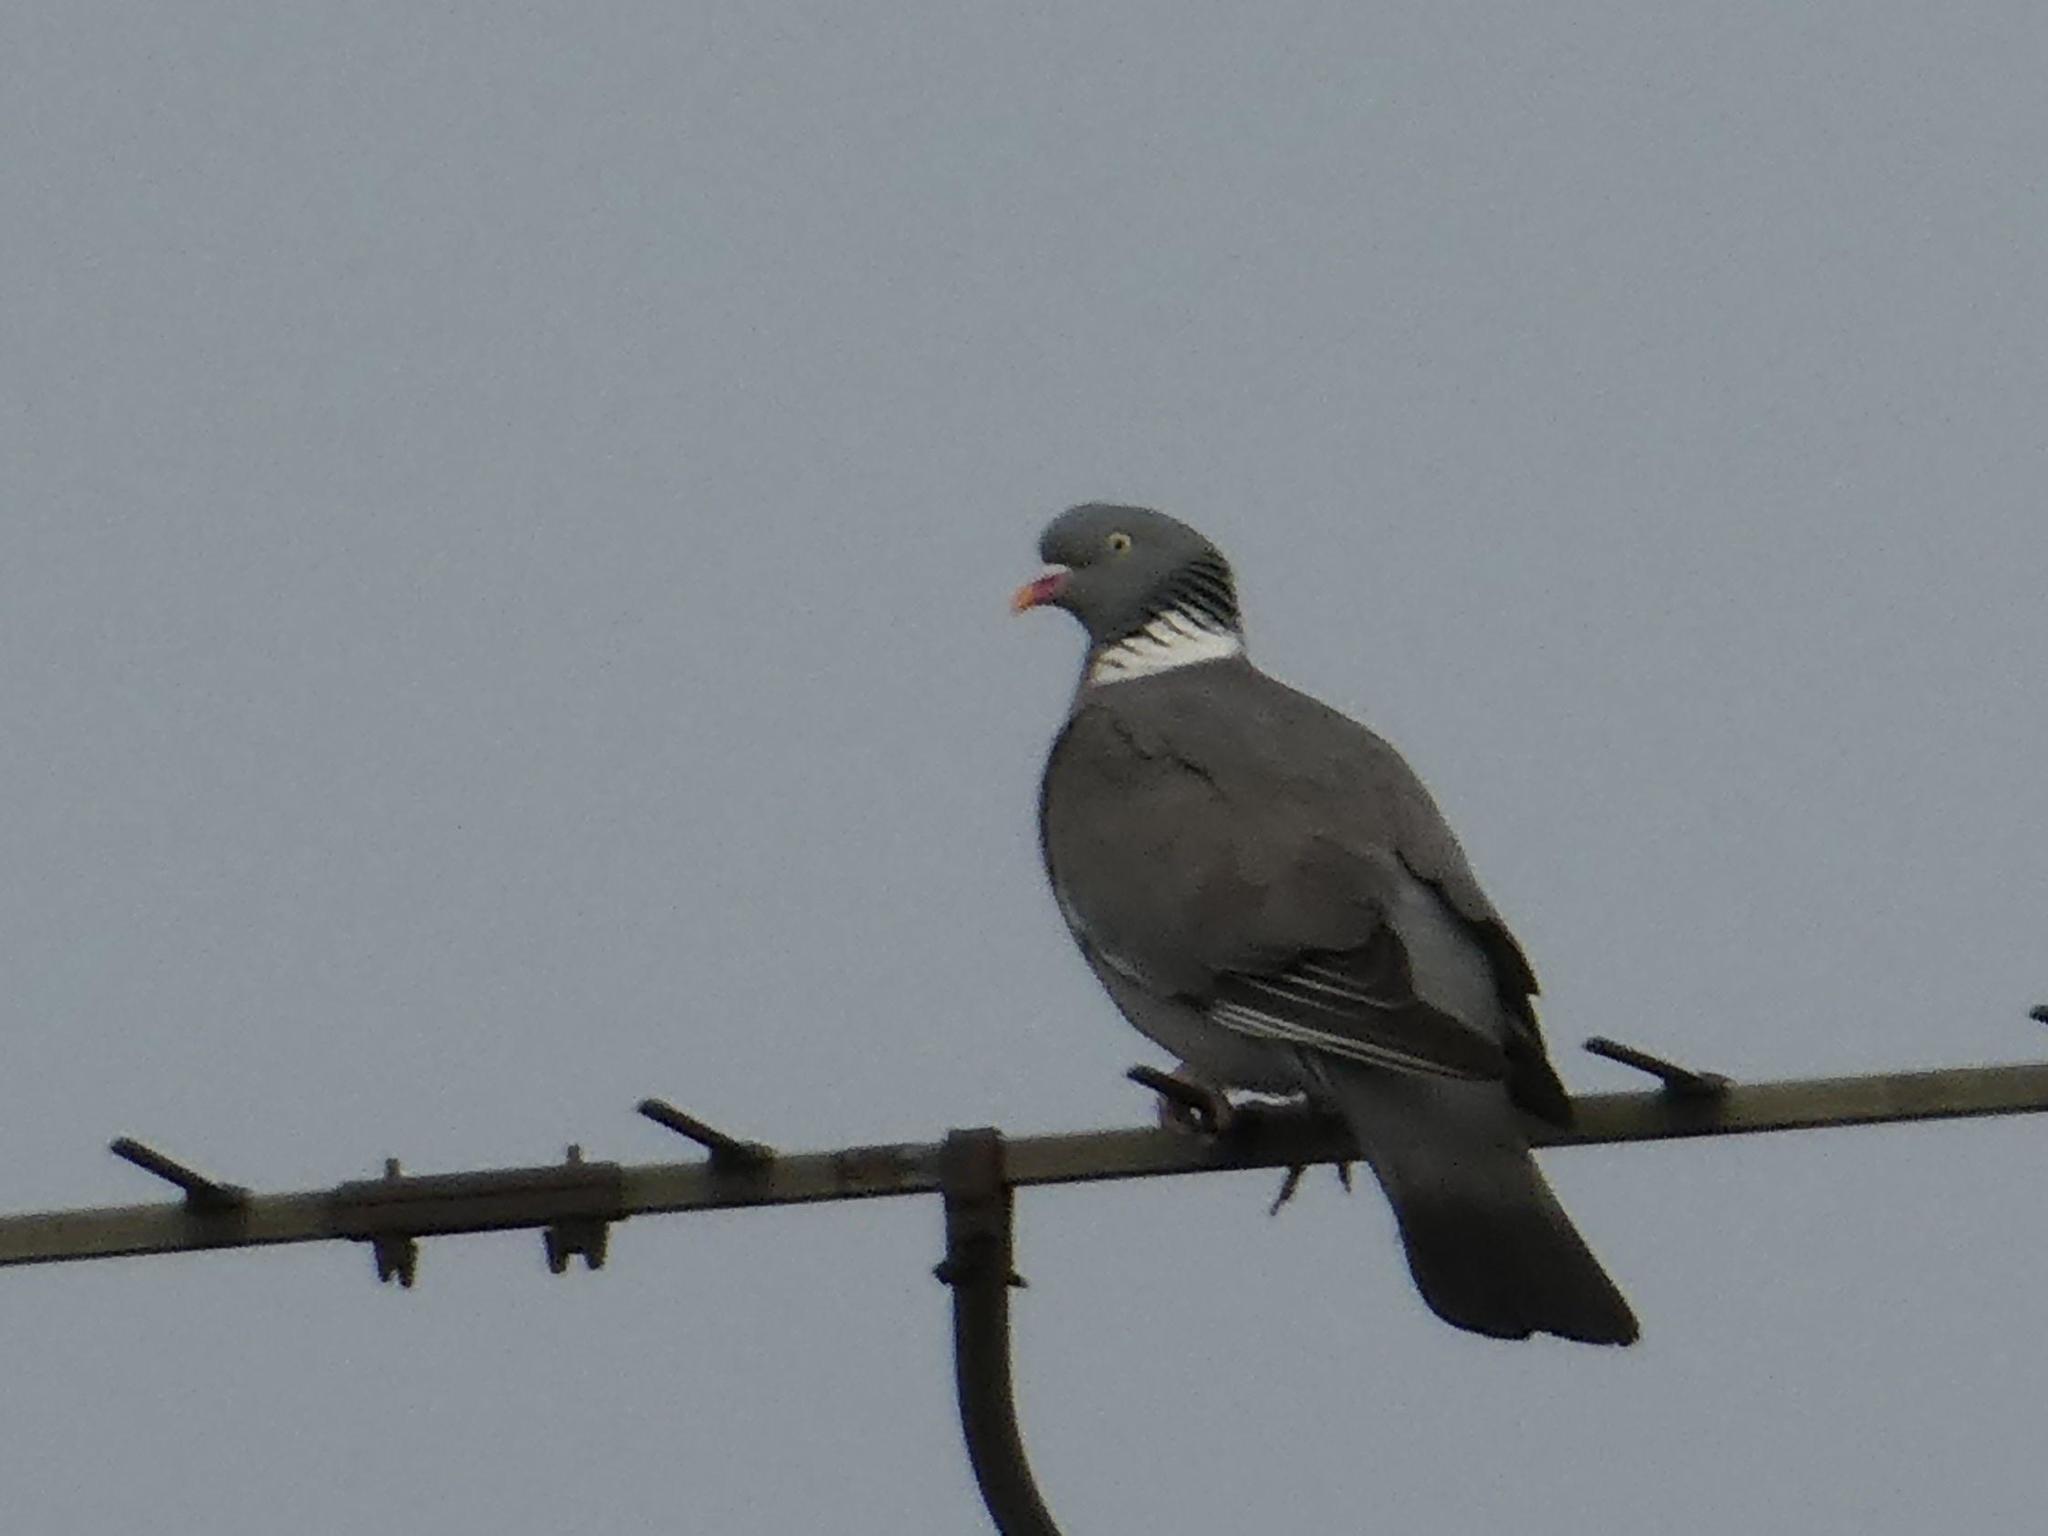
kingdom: Animalia
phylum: Chordata
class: Aves
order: Columbiformes
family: Columbidae
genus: Columba
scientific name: Columba palumbus
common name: Common wood pigeon
